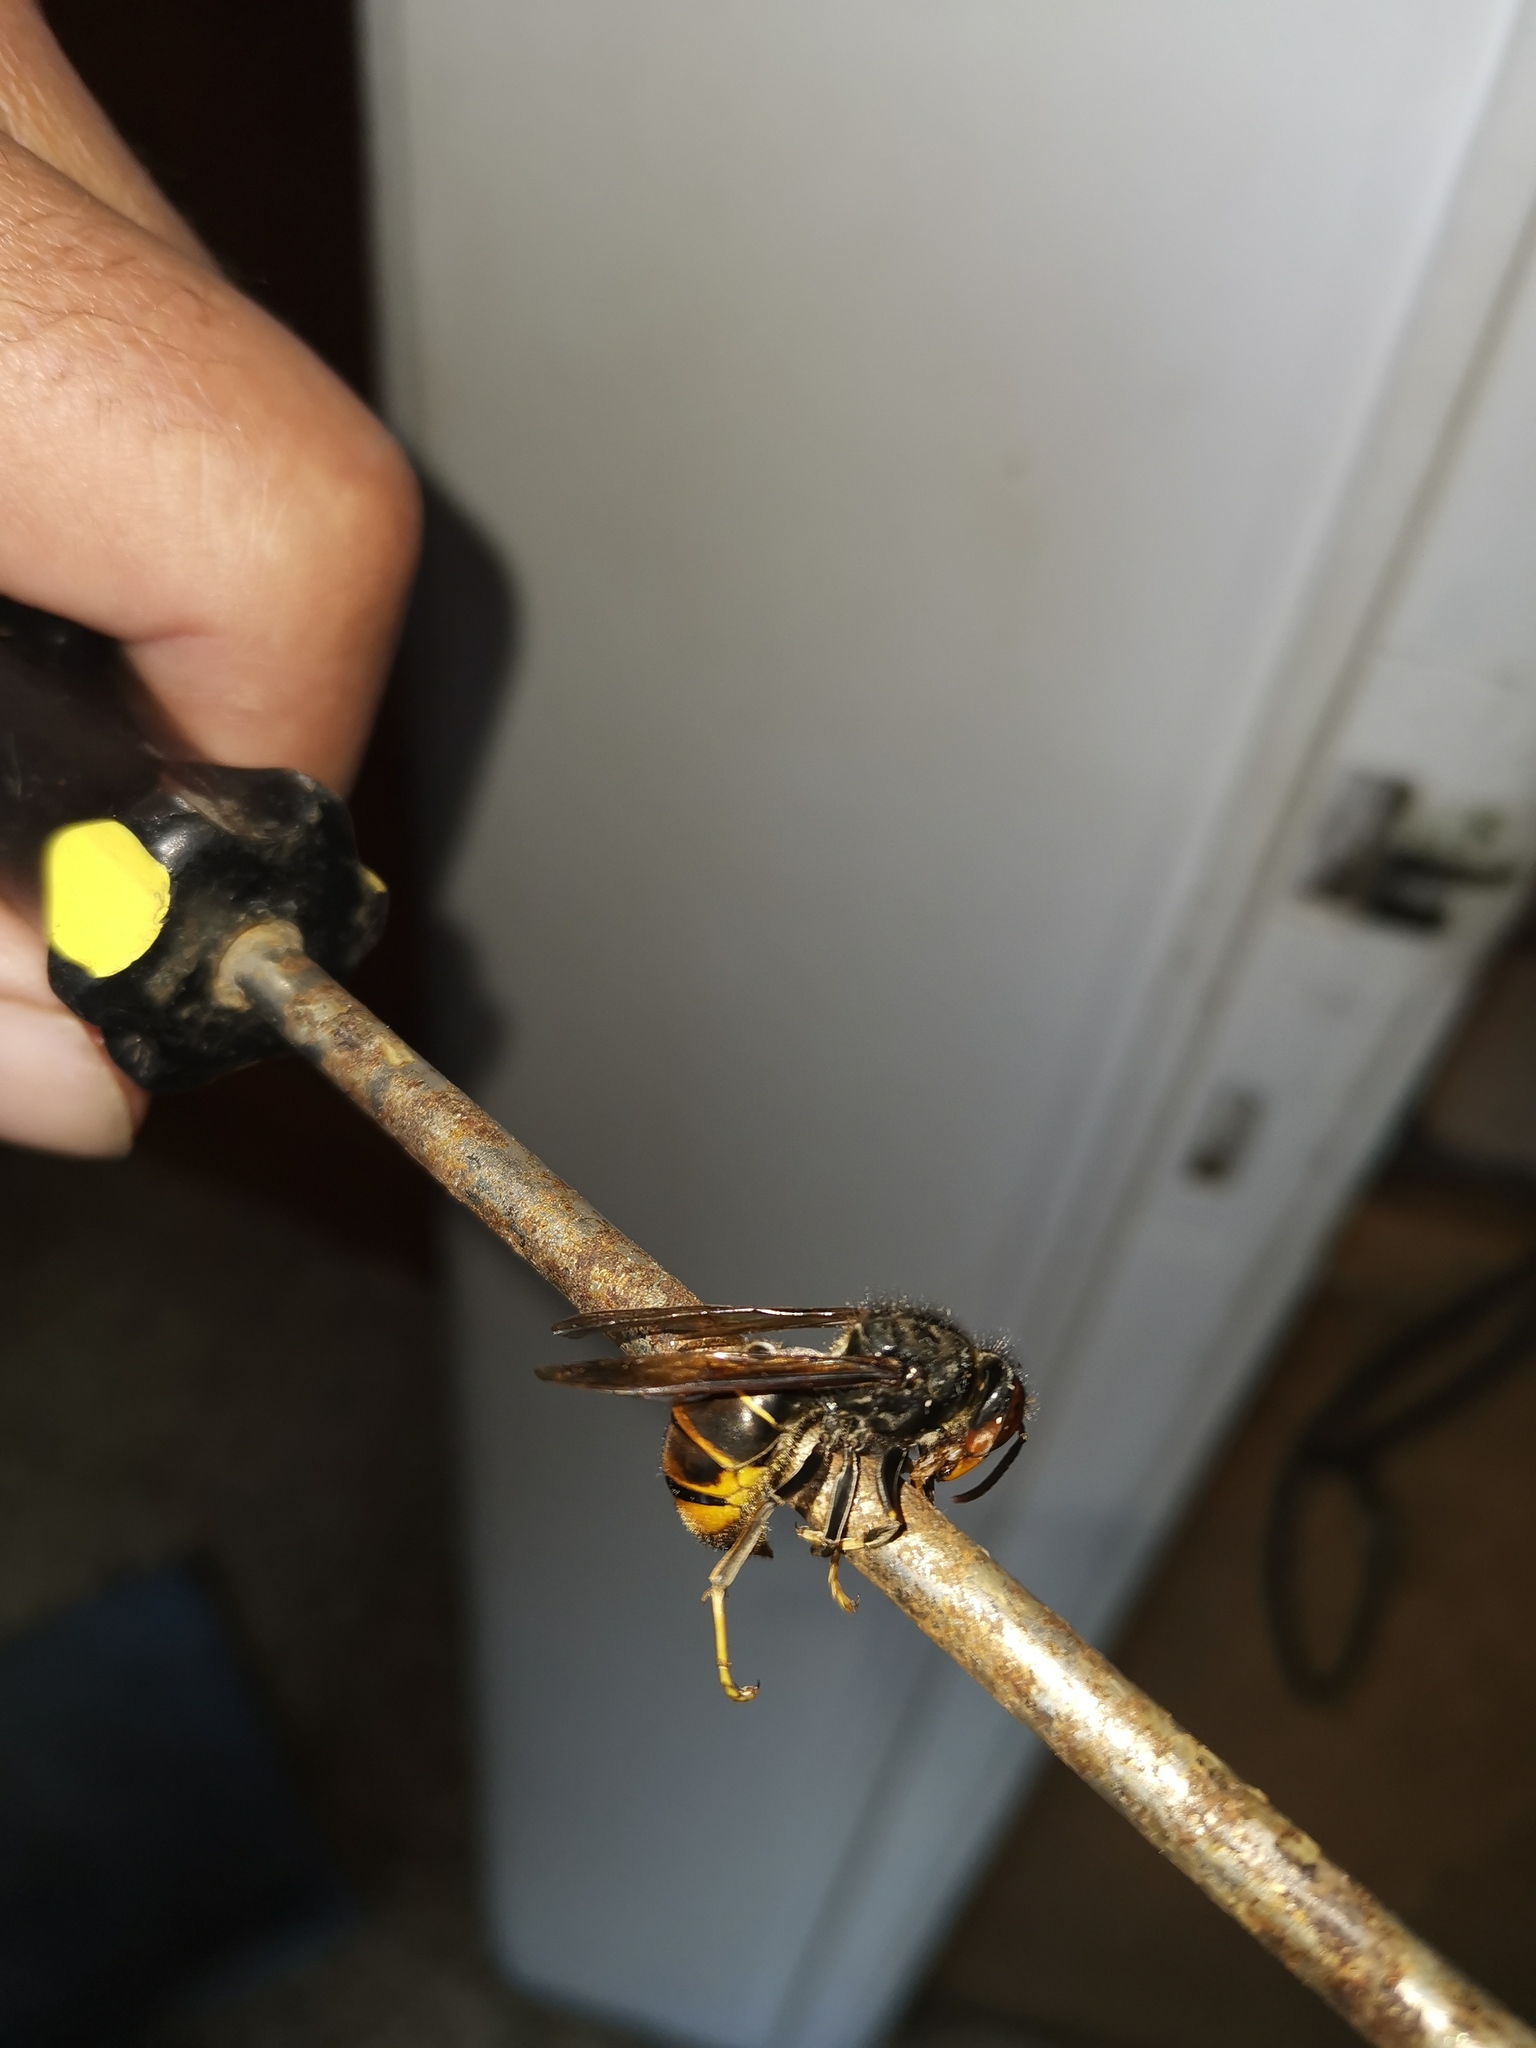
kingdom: Animalia
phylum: Arthropoda
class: Insecta
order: Hymenoptera
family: Vespidae
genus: Vespa
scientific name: Vespa velutina
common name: Asian hornet
